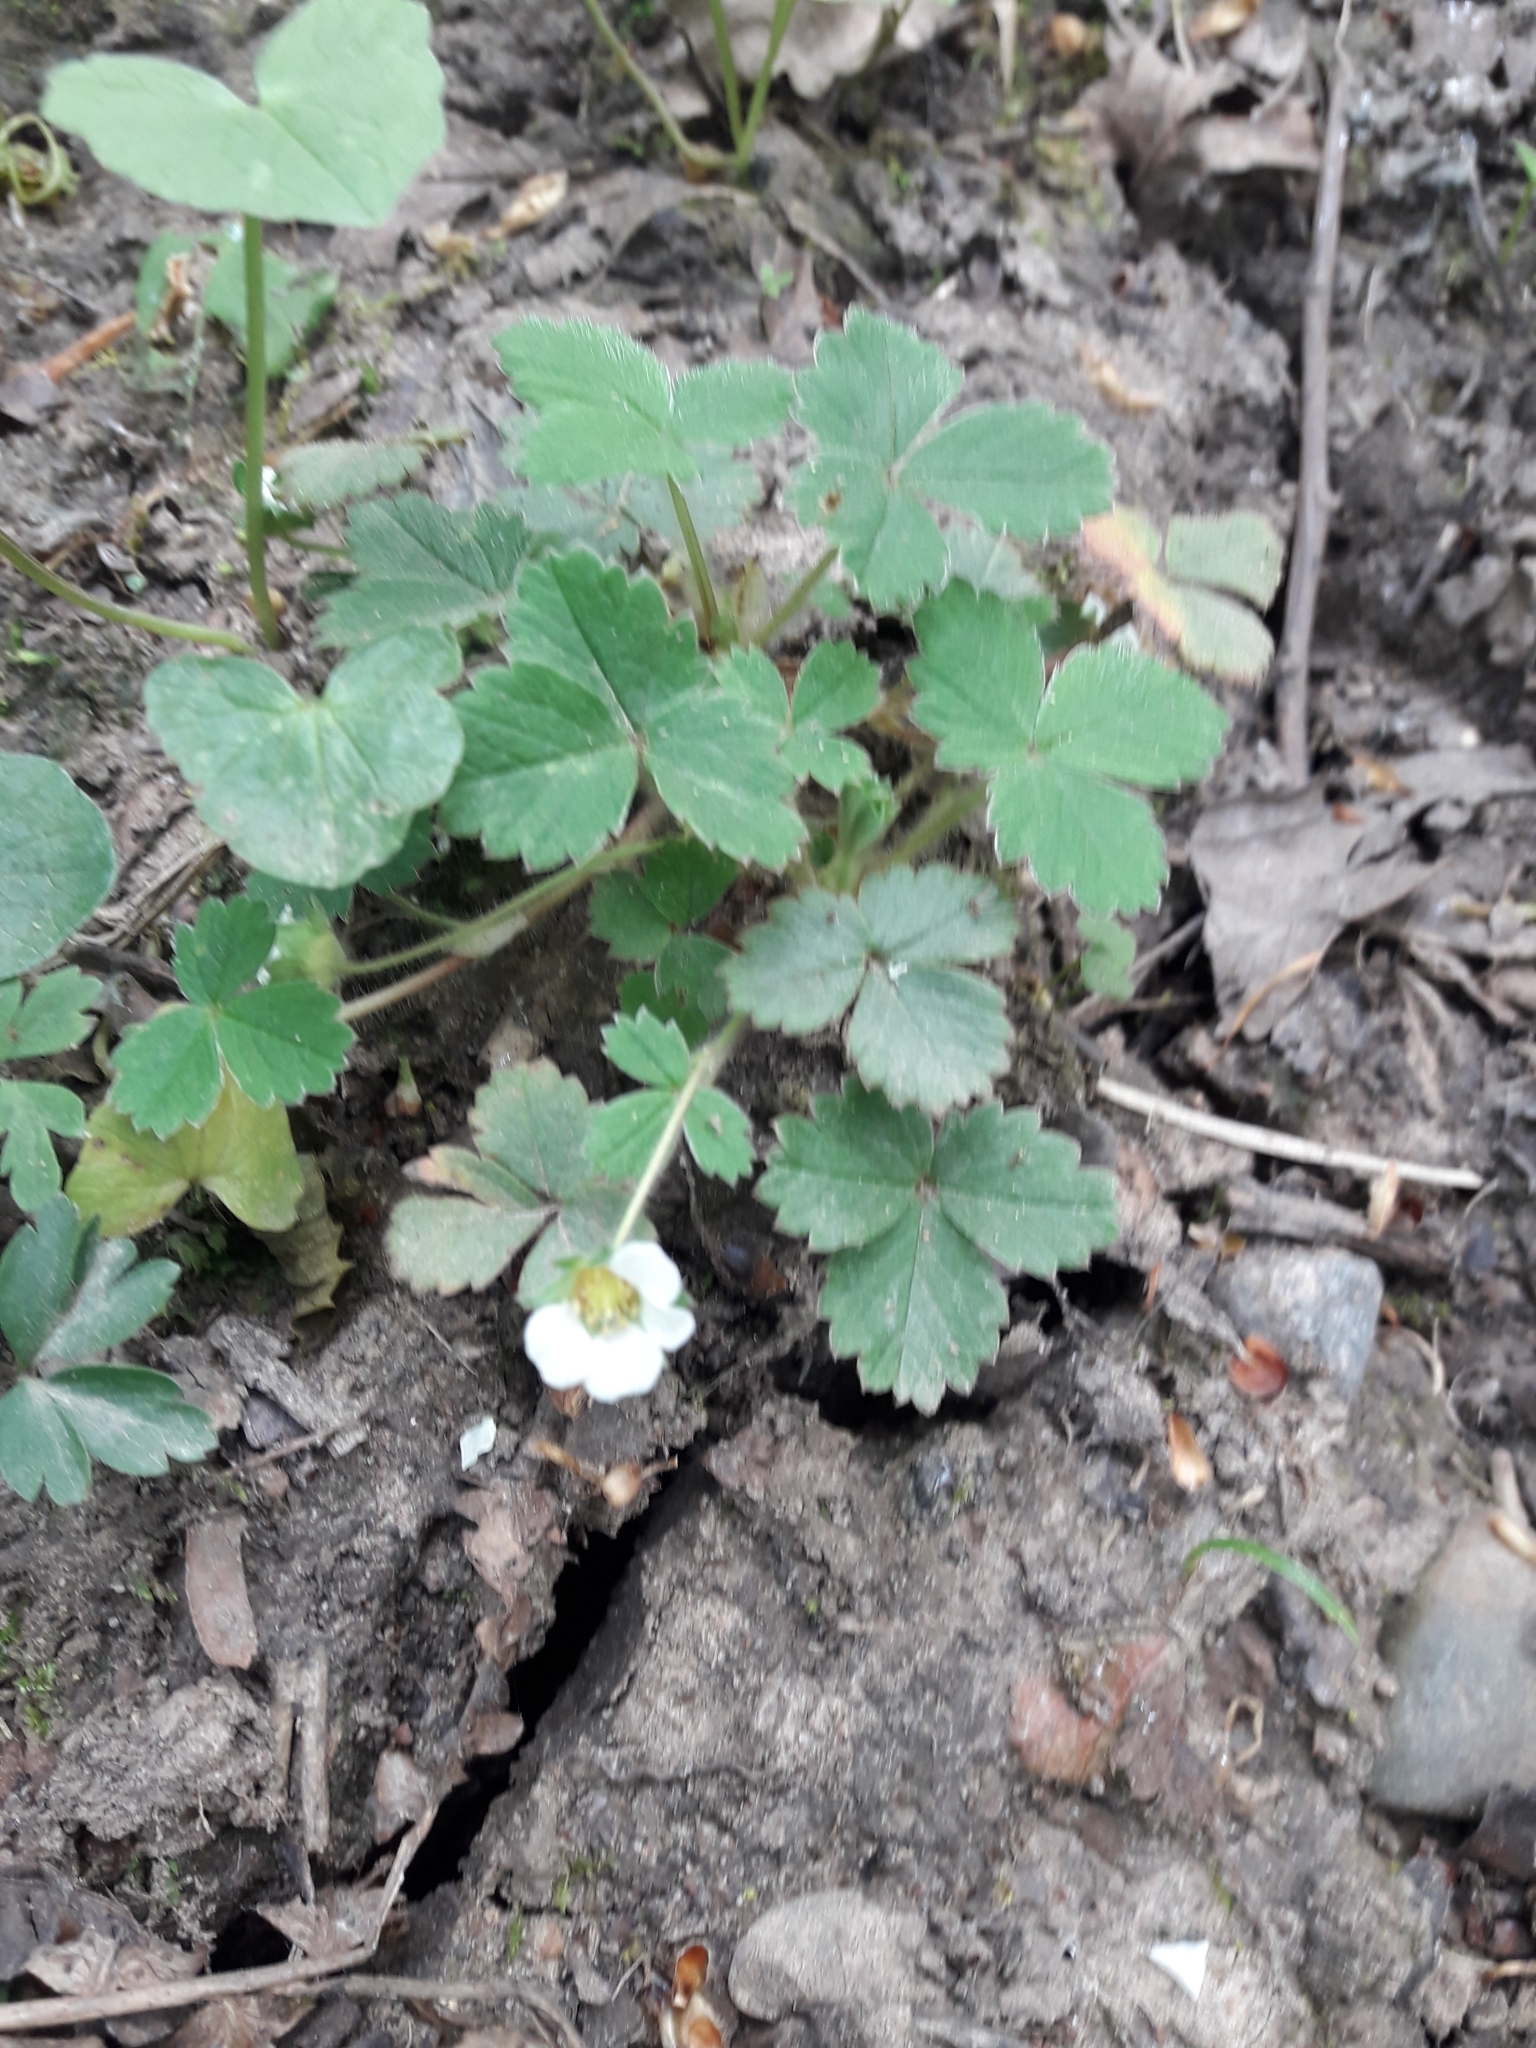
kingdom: Plantae
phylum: Tracheophyta
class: Magnoliopsida
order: Rosales
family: Rosaceae
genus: Potentilla
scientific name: Potentilla sterilis
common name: Barren strawberry
